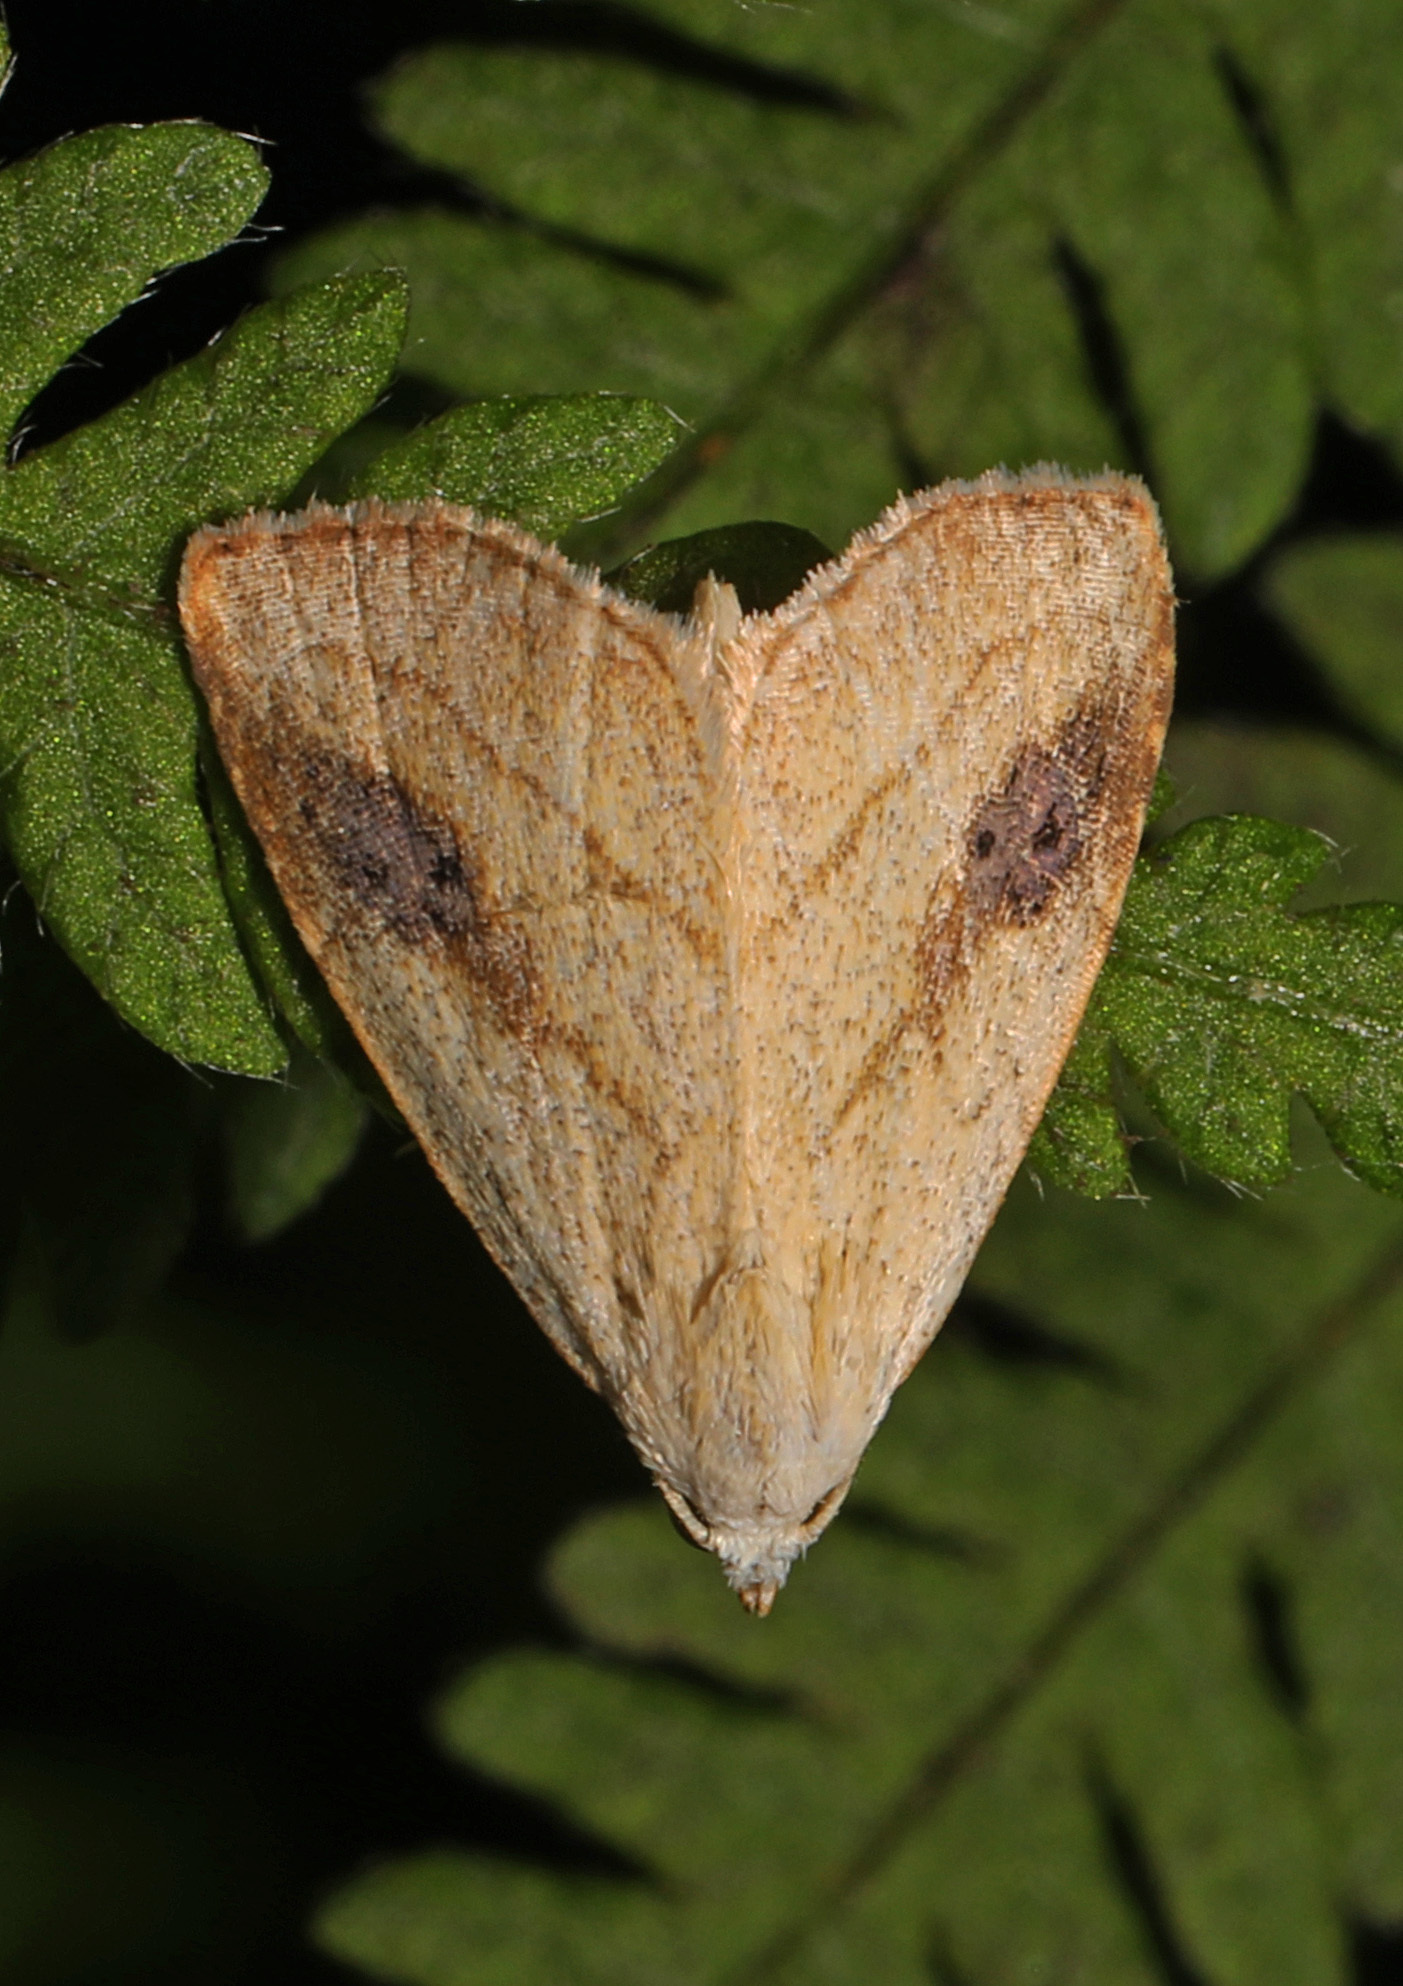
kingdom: Animalia
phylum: Arthropoda
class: Insecta
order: Lepidoptera
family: Erebidae
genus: Rivula
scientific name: Rivula propinqualis
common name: Spotted grass moth
